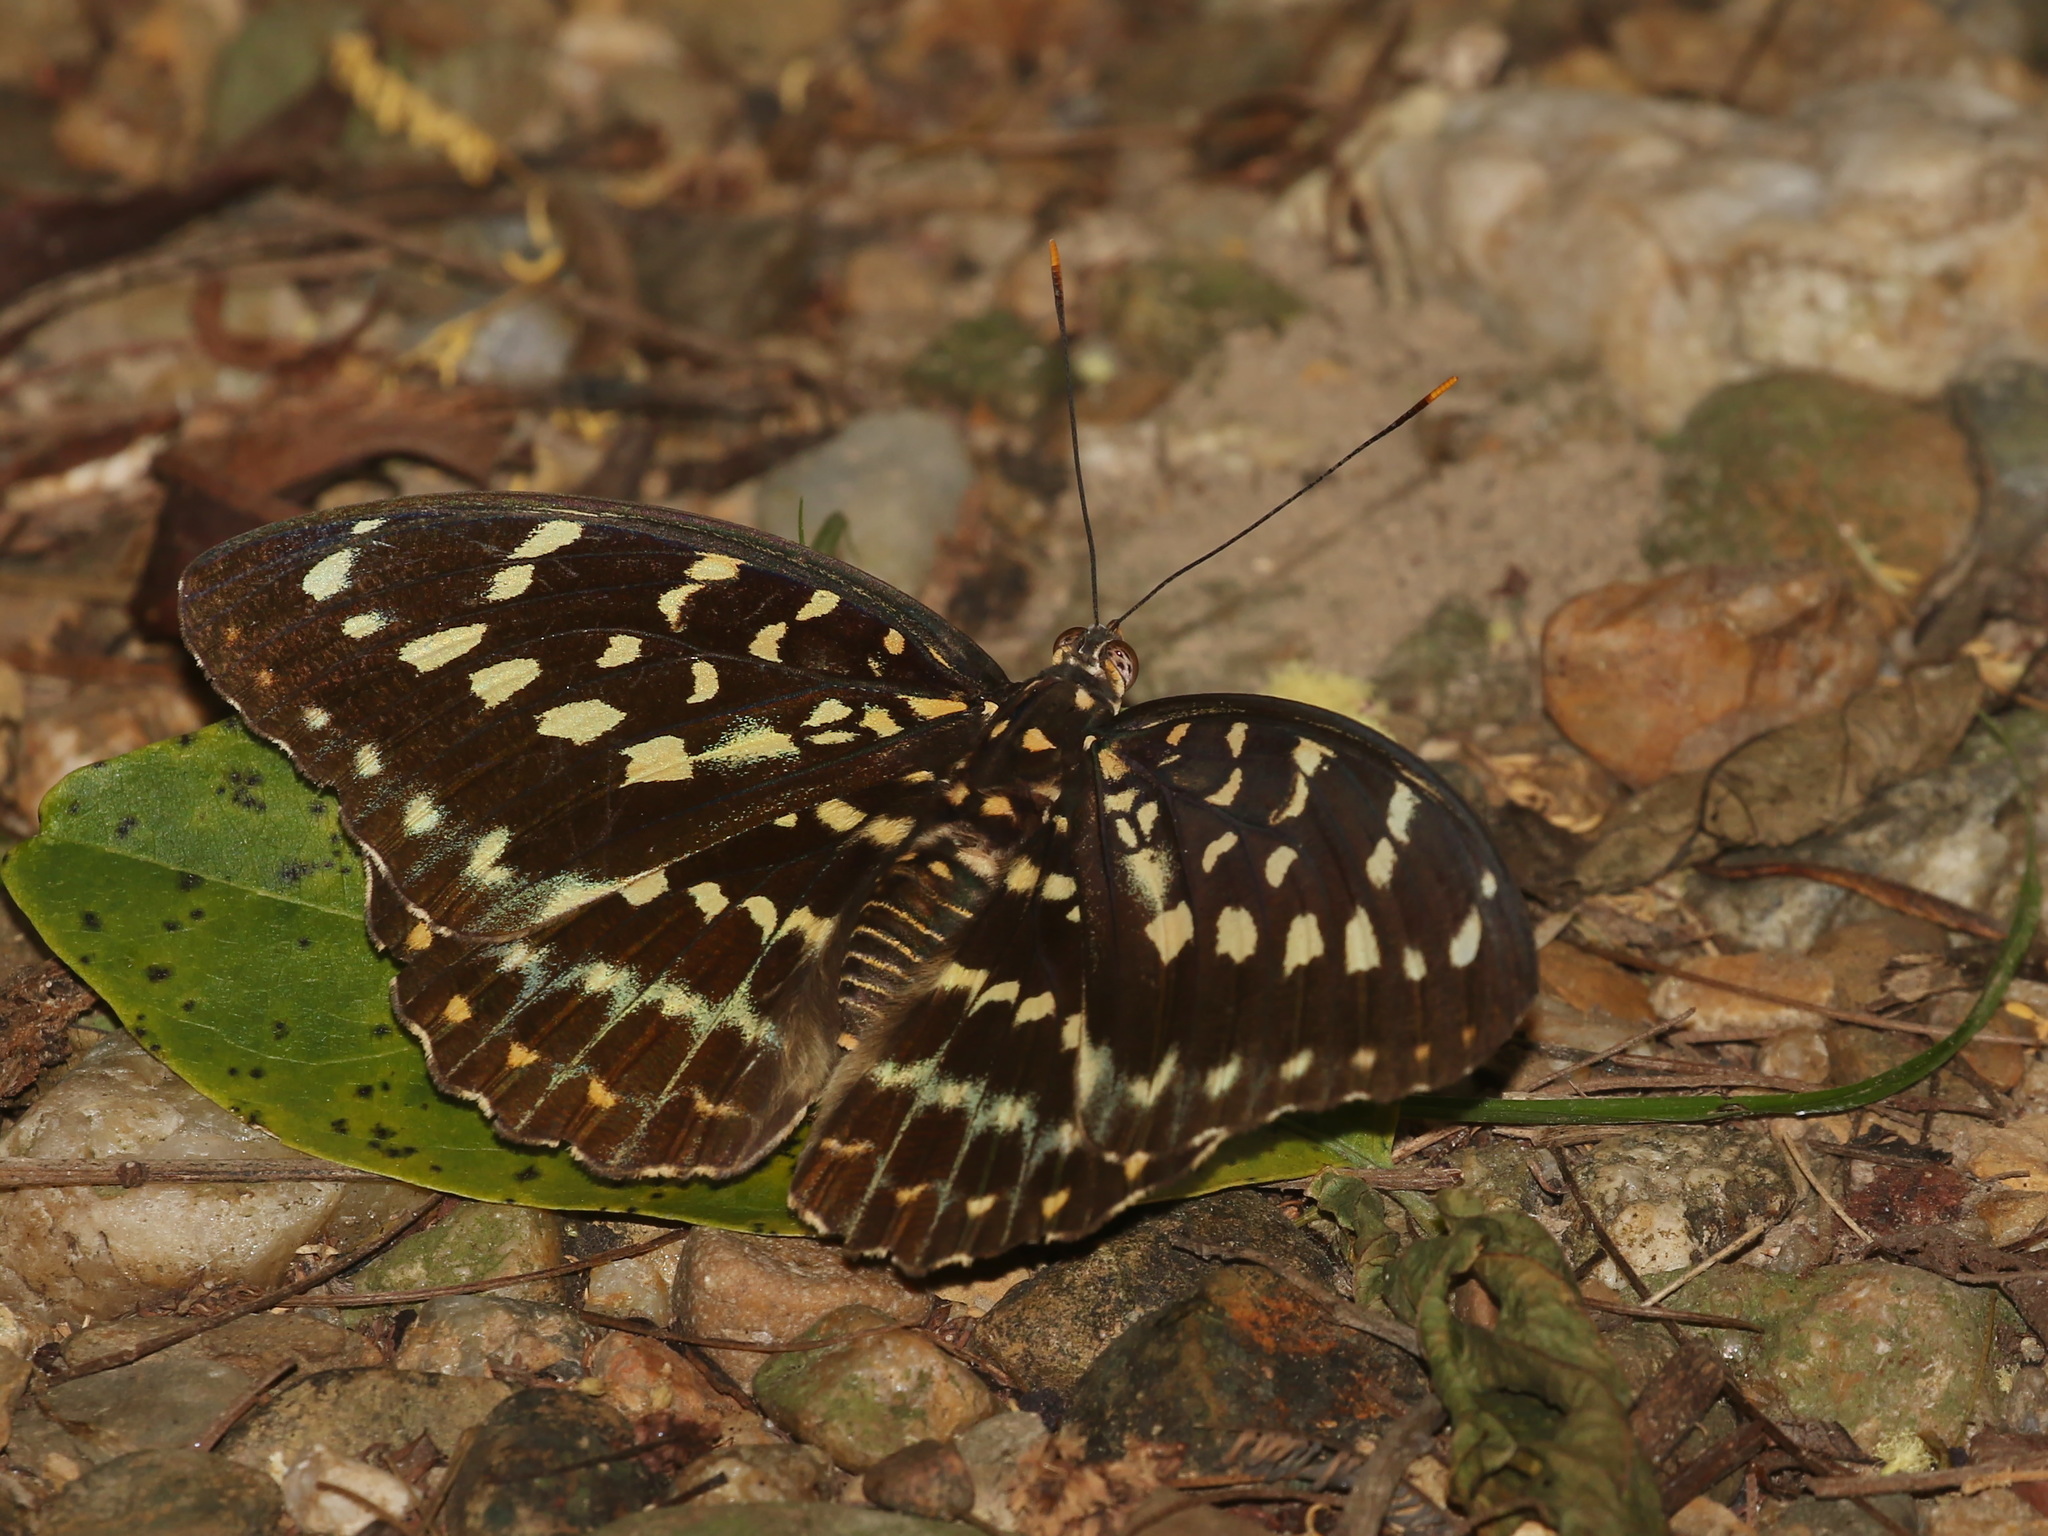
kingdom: Animalia
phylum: Arthropoda
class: Insecta
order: Lepidoptera
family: Nymphalidae
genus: Lexias
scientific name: Lexias pardalis
